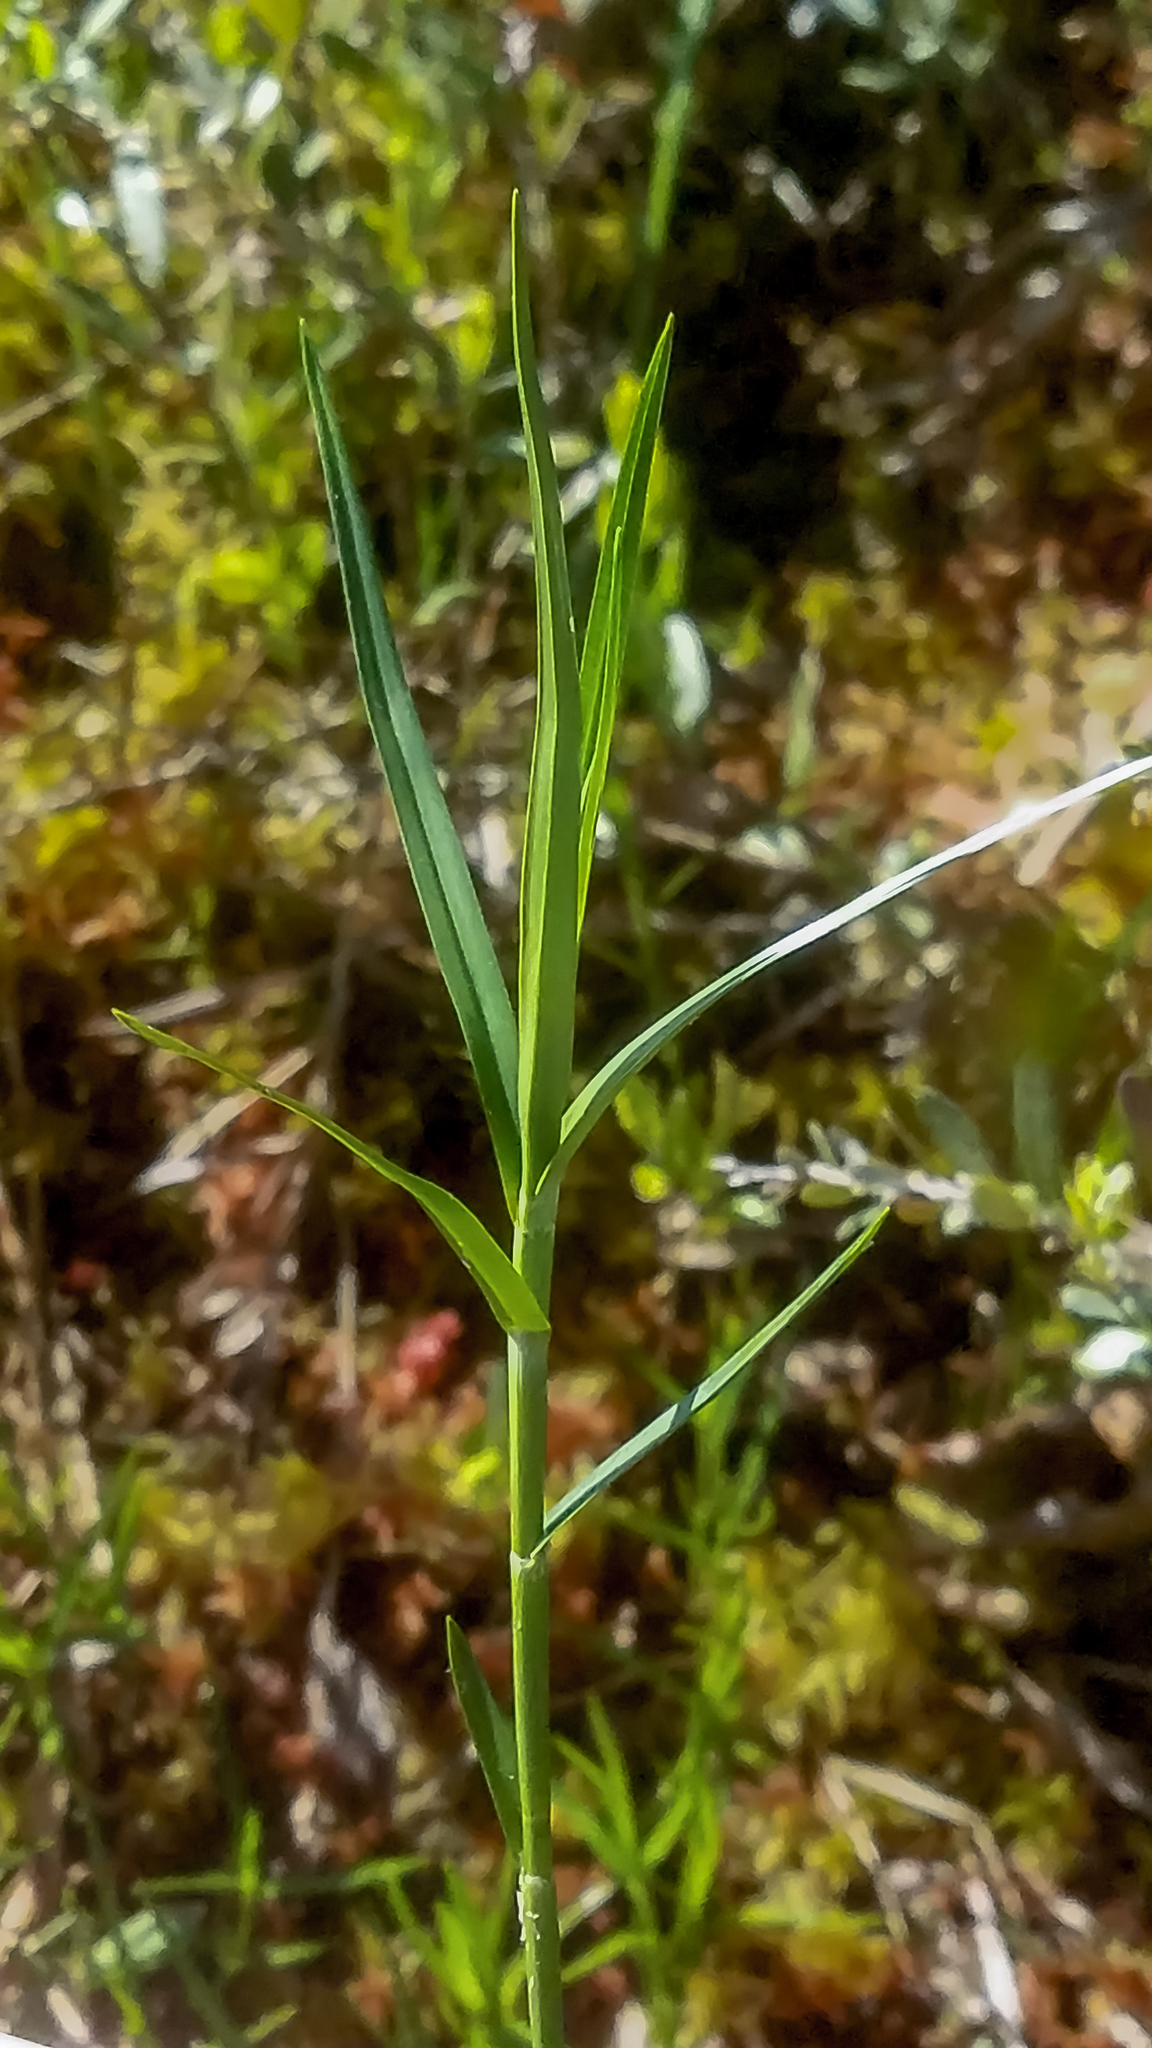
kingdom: Plantae
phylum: Tracheophyta
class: Liliopsida
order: Poales
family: Cyperaceae
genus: Dulichium
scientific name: Dulichium arundinaceum
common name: Three-way sedge
